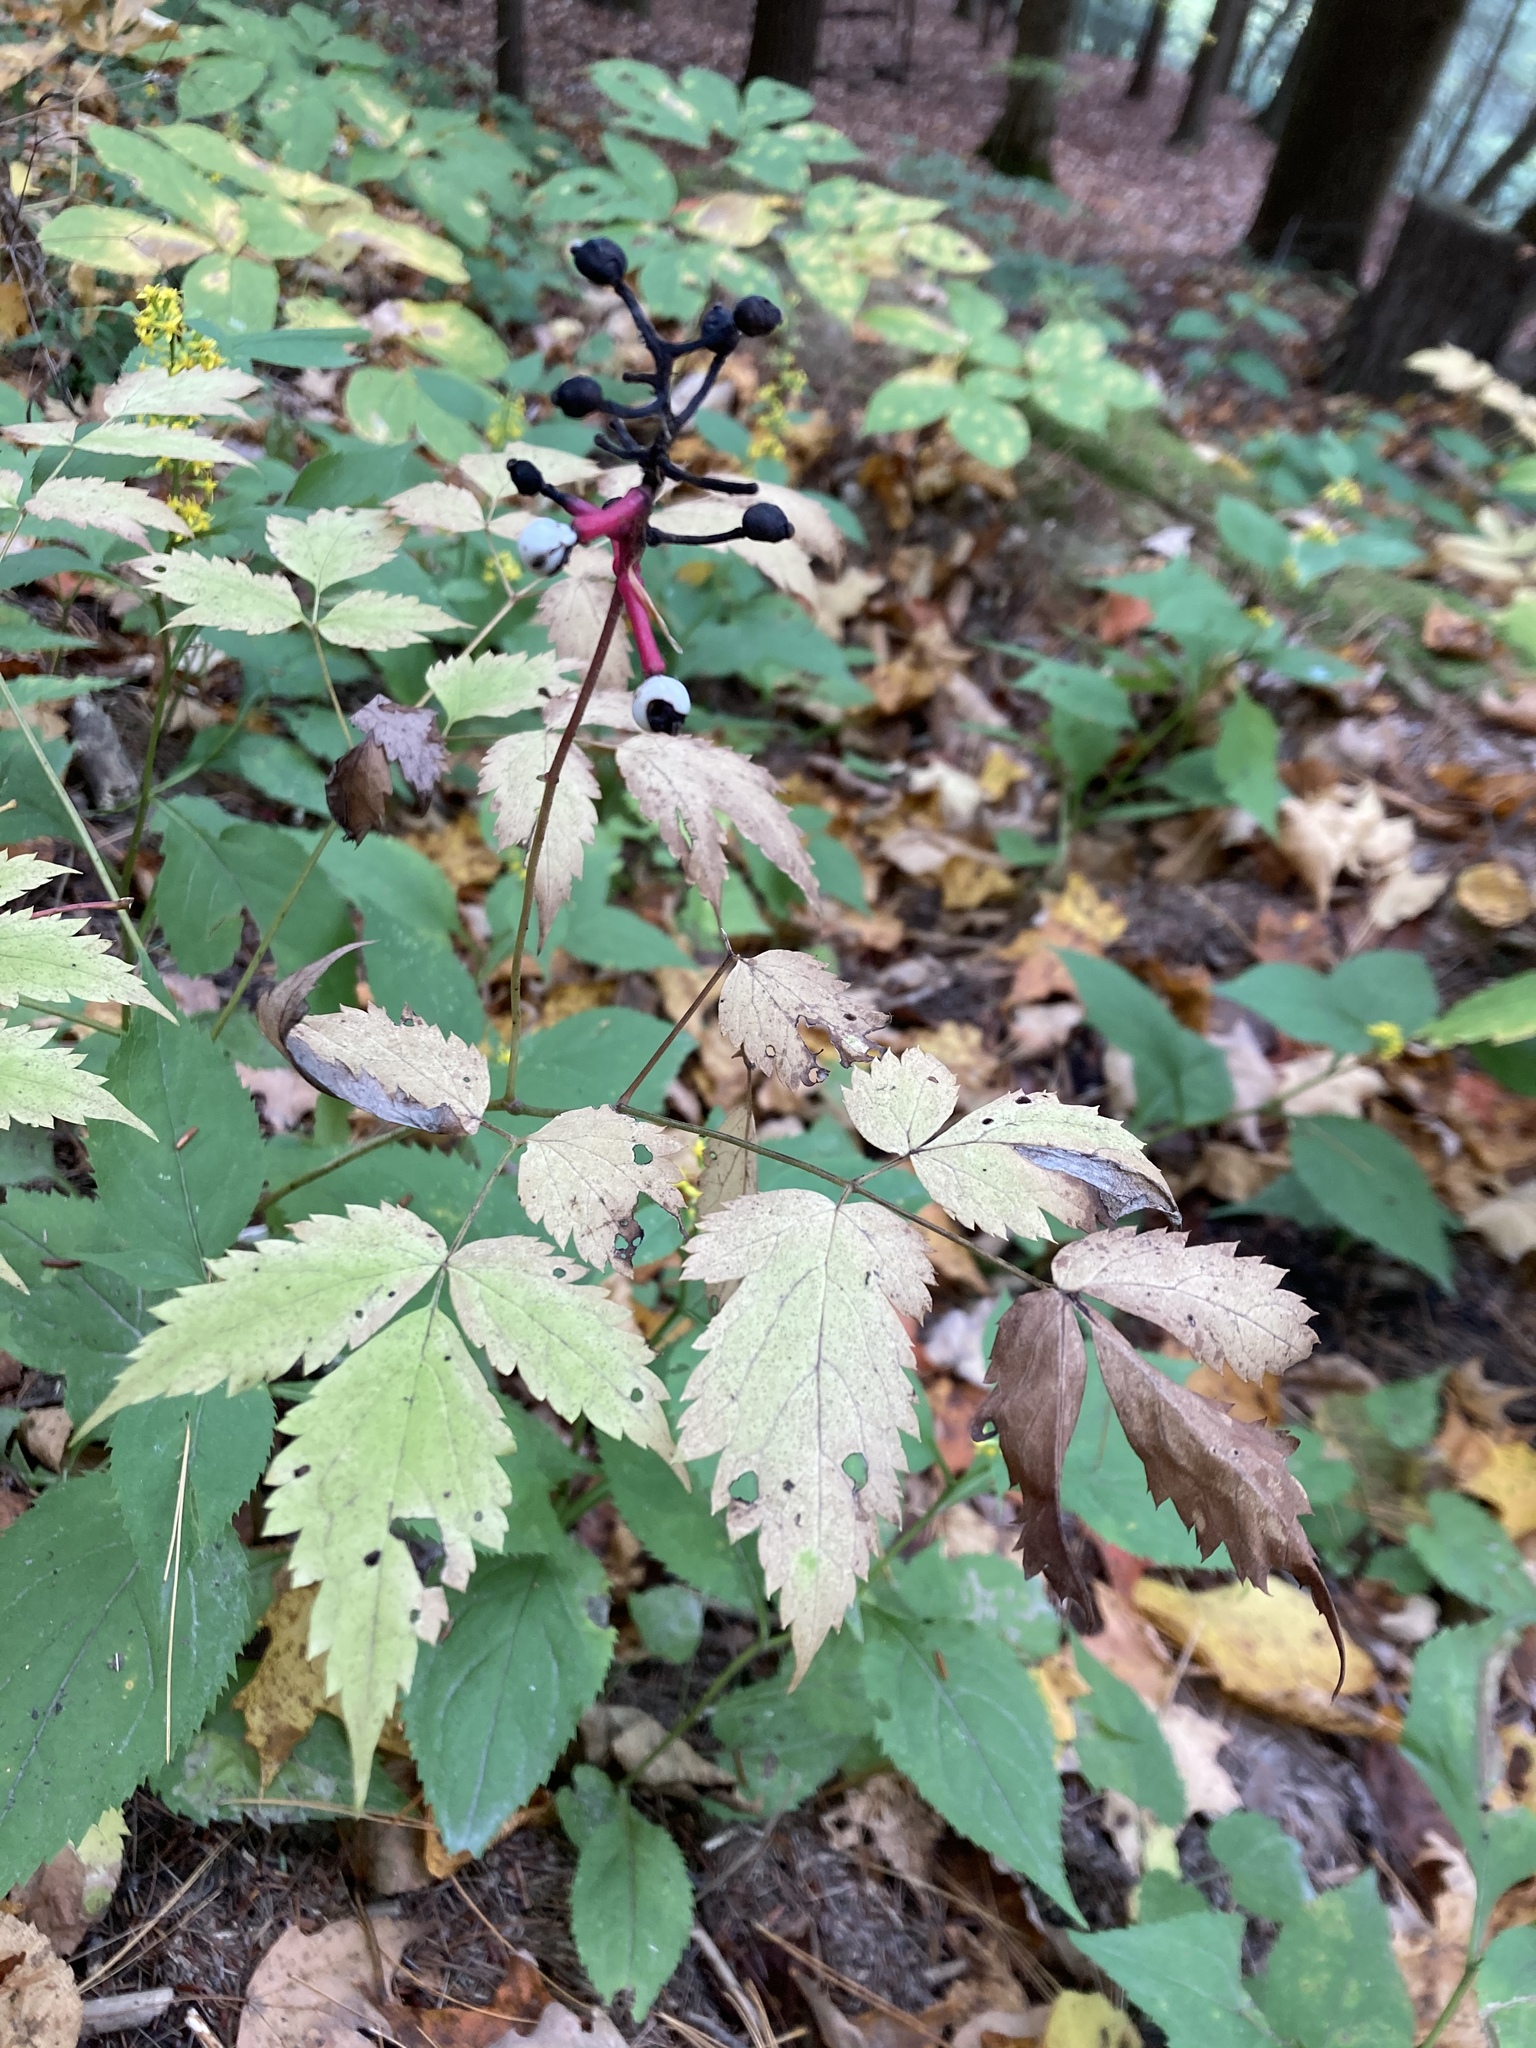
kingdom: Plantae
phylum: Tracheophyta
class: Magnoliopsida
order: Ranunculales
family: Ranunculaceae
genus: Actaea
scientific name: Actaea pachypoda
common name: Doll's-eyes
